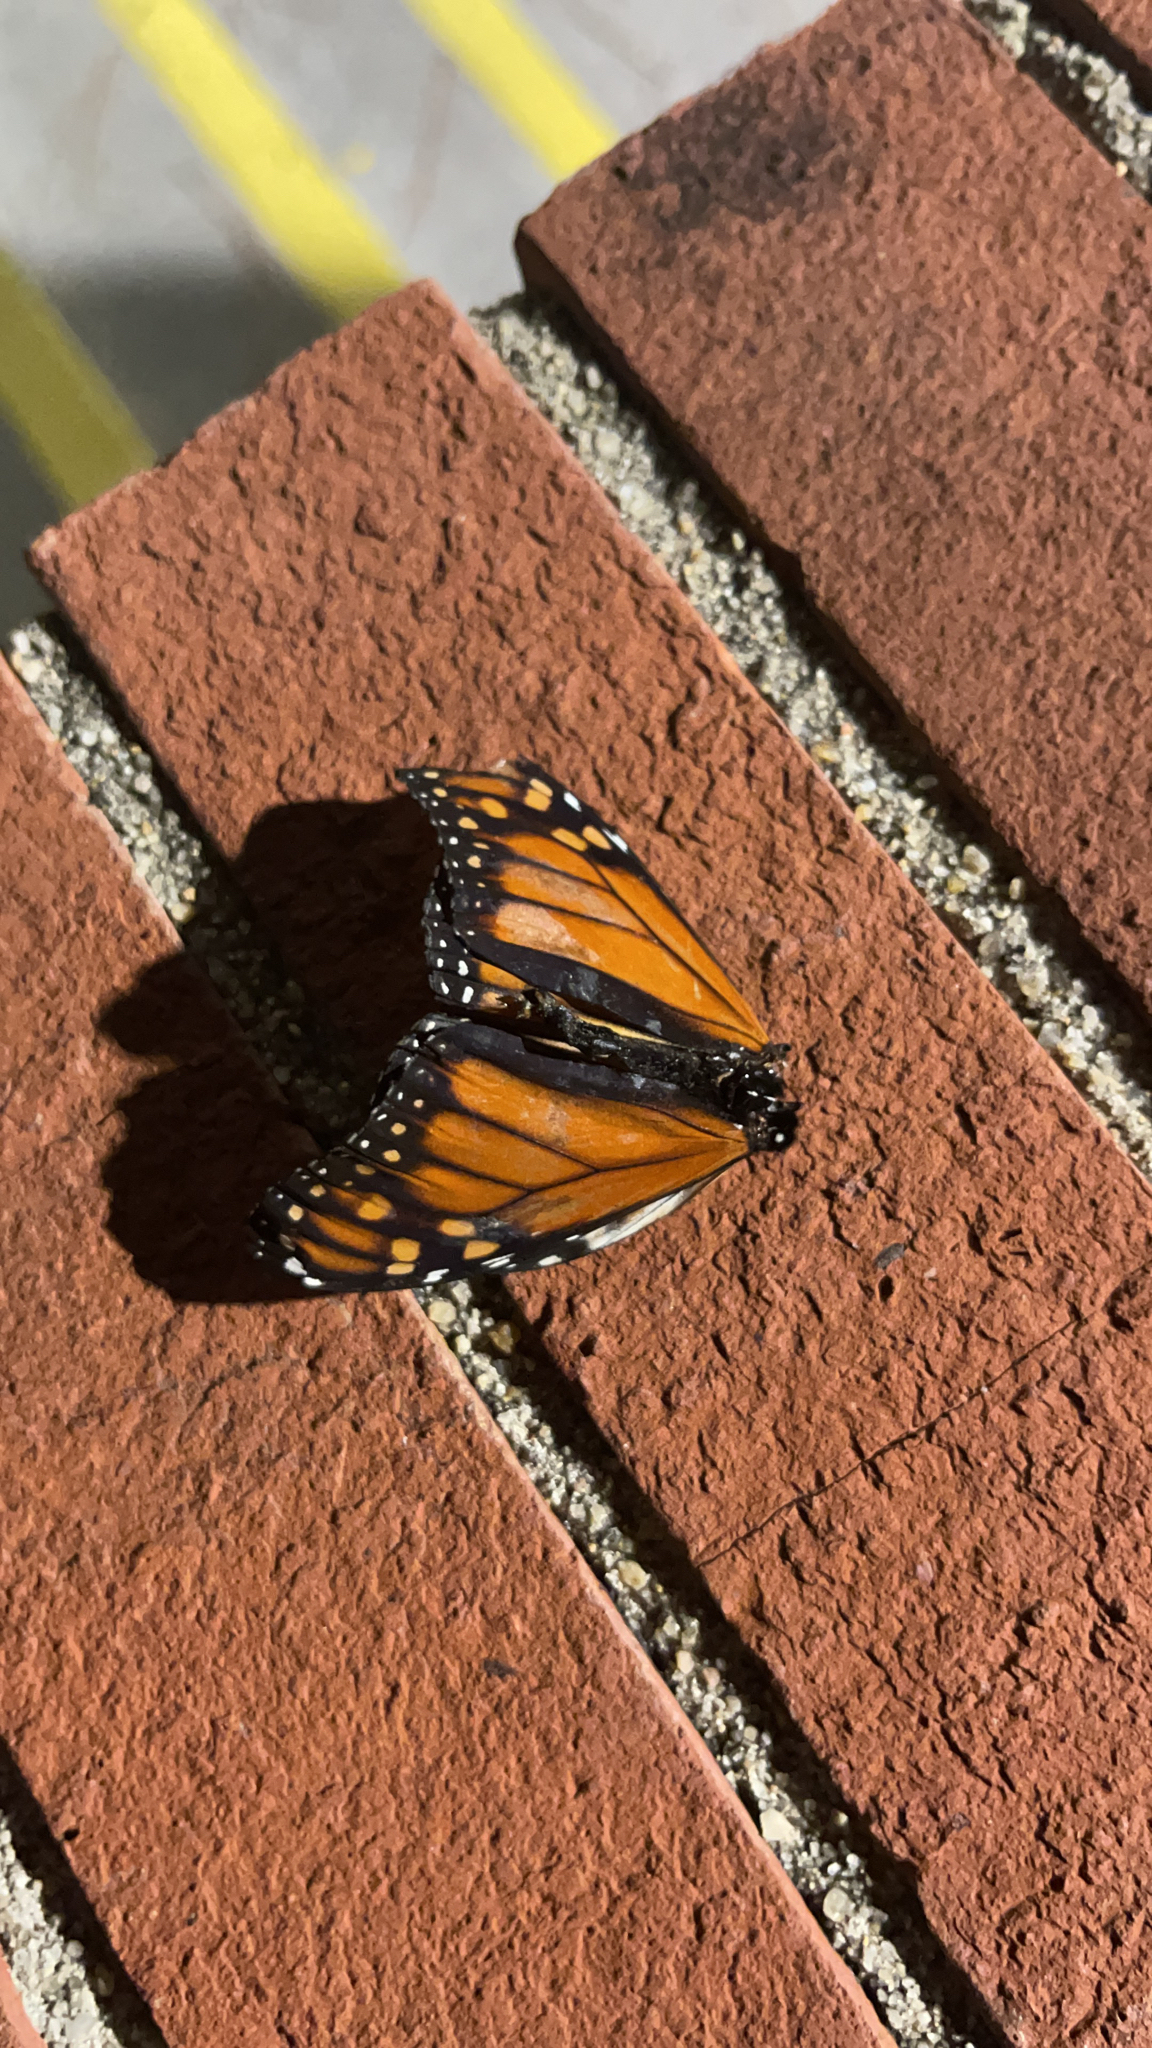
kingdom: Animalia
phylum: Arthropoda
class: Insecta
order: Lepidoptera
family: Nymphalidae
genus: Danaus
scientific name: Danaus plexippus
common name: Monarch
